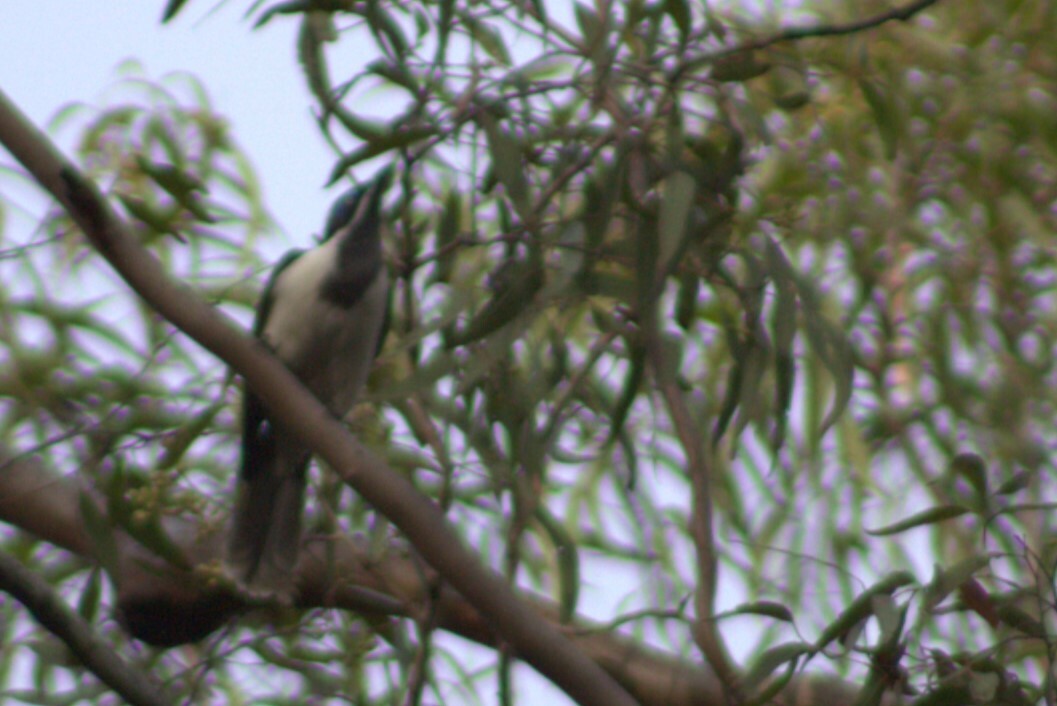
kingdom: Animalia
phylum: Chordata
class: Aves
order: Passeriformes
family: Meliphagidae
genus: Entomyzon
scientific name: Entomyzon cyanotis
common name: Blue-faced honeyeater
